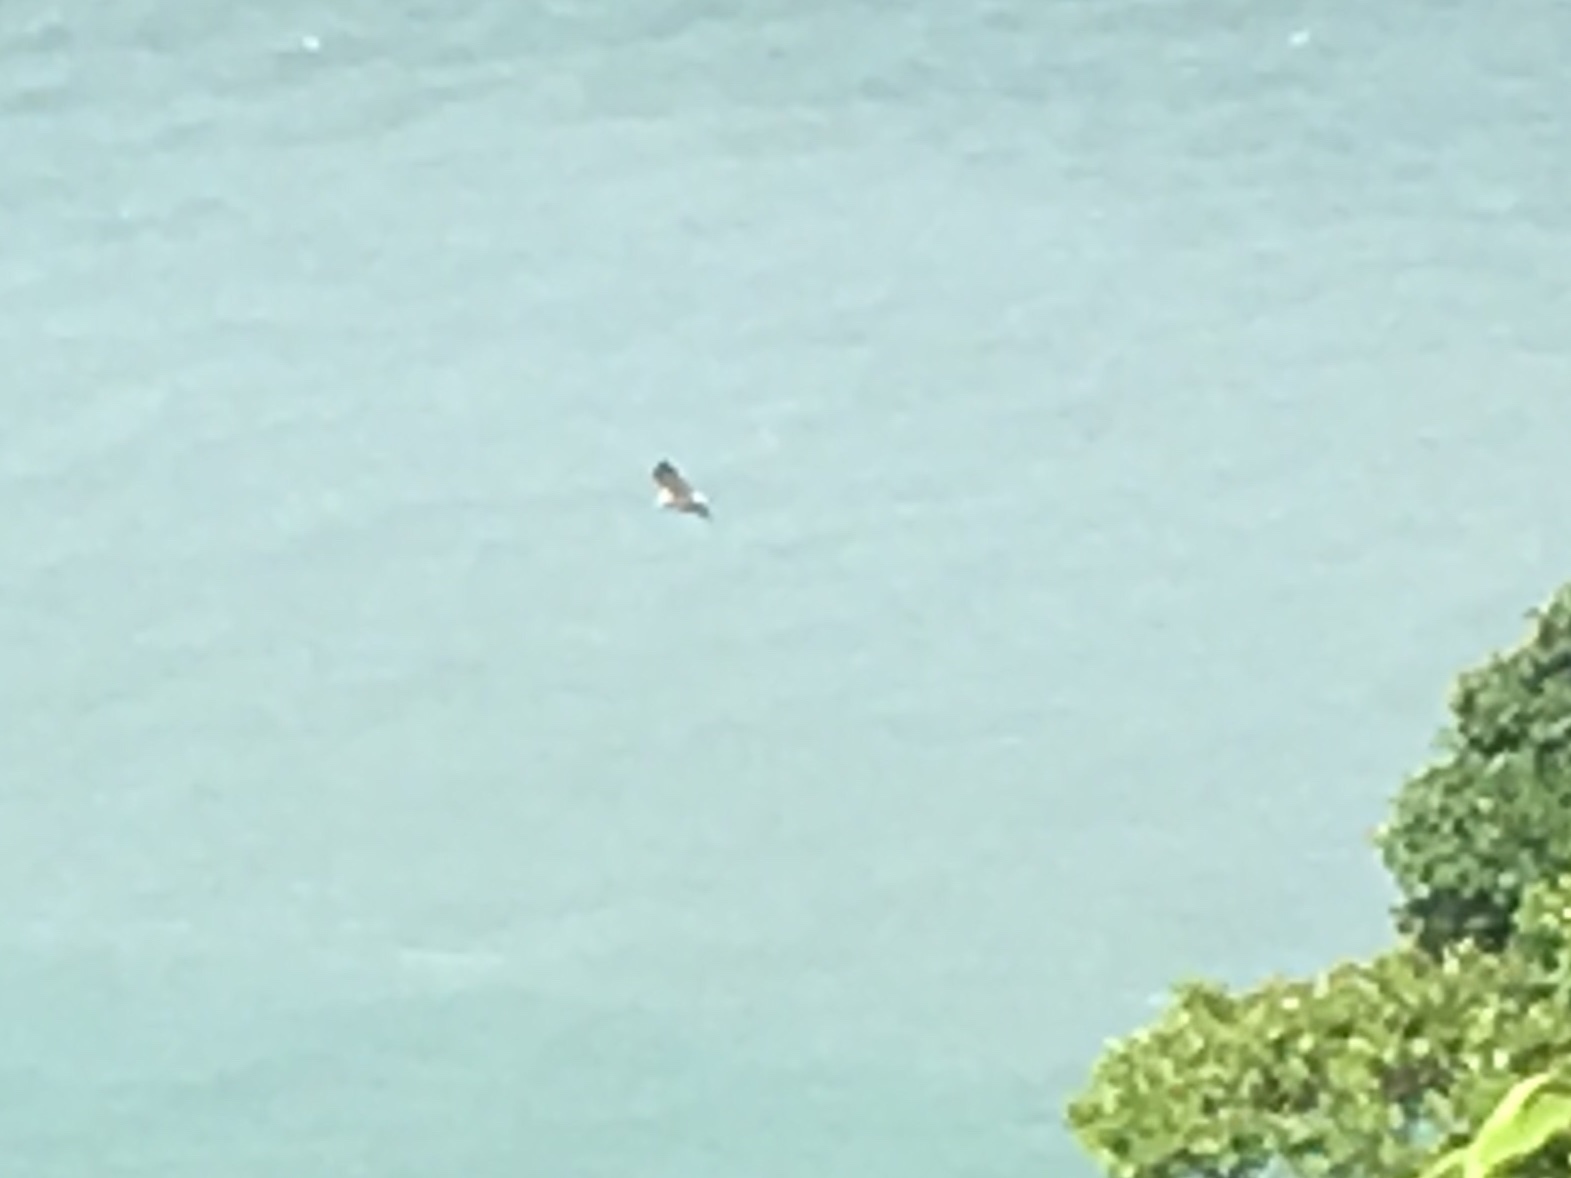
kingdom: Animalia
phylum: Chordata
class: Aves
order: Accipitriformes
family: Accipitridae
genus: Haliaeetus
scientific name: Haliaeetus leucogaster
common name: White-bellied sea eagle
